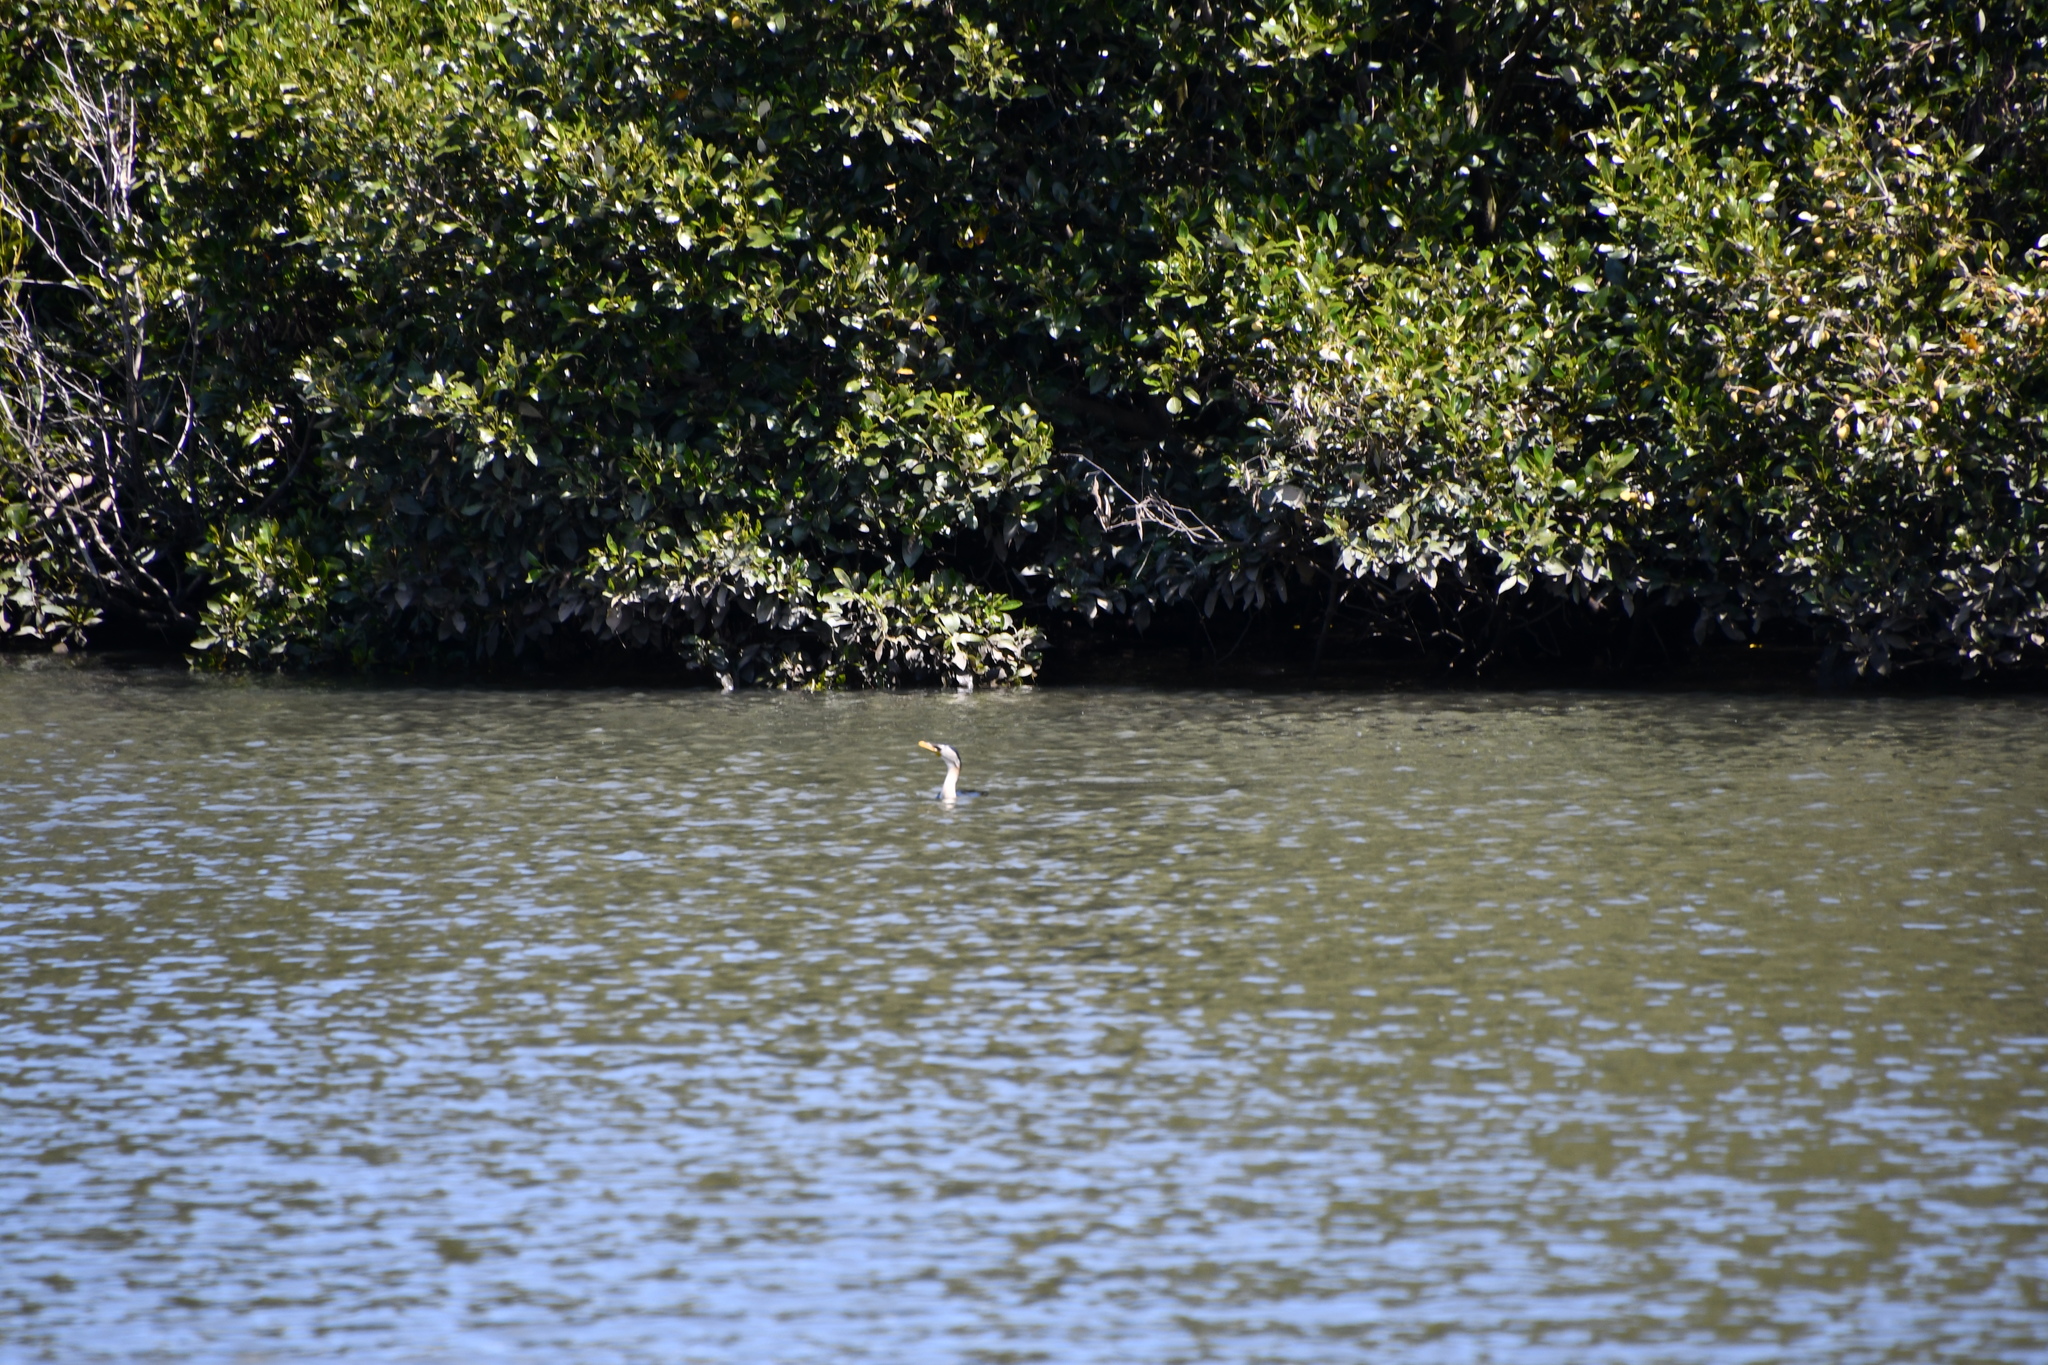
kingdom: Animalia
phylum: Chordata
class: Aves
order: Suliformes
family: Phalacrocoracidae
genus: Microcarbo
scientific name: Microcarbo melanoleucos
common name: Little pied cormorant
